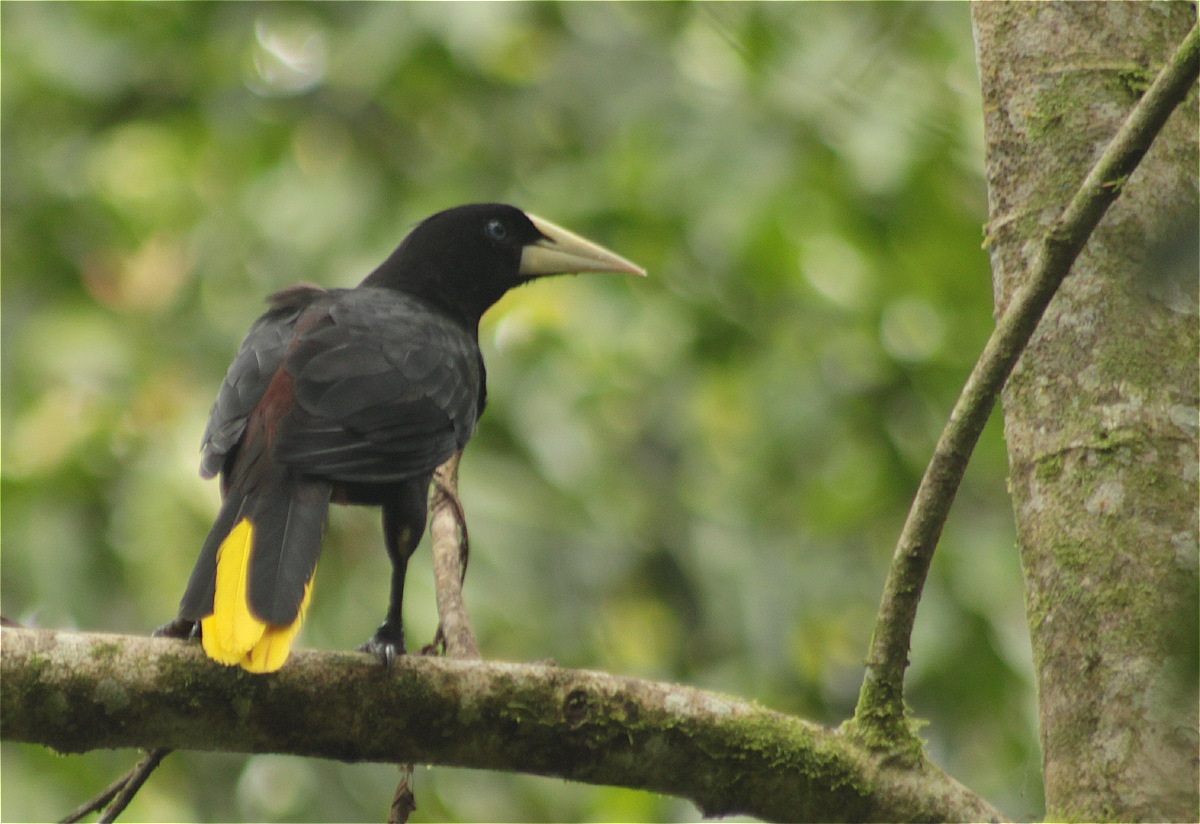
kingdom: Animalia
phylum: Chordata
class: Aves
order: Passeriformes
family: Icteridae
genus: Psarocolius
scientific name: Psarocolius decumanus
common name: Crested oropendola
